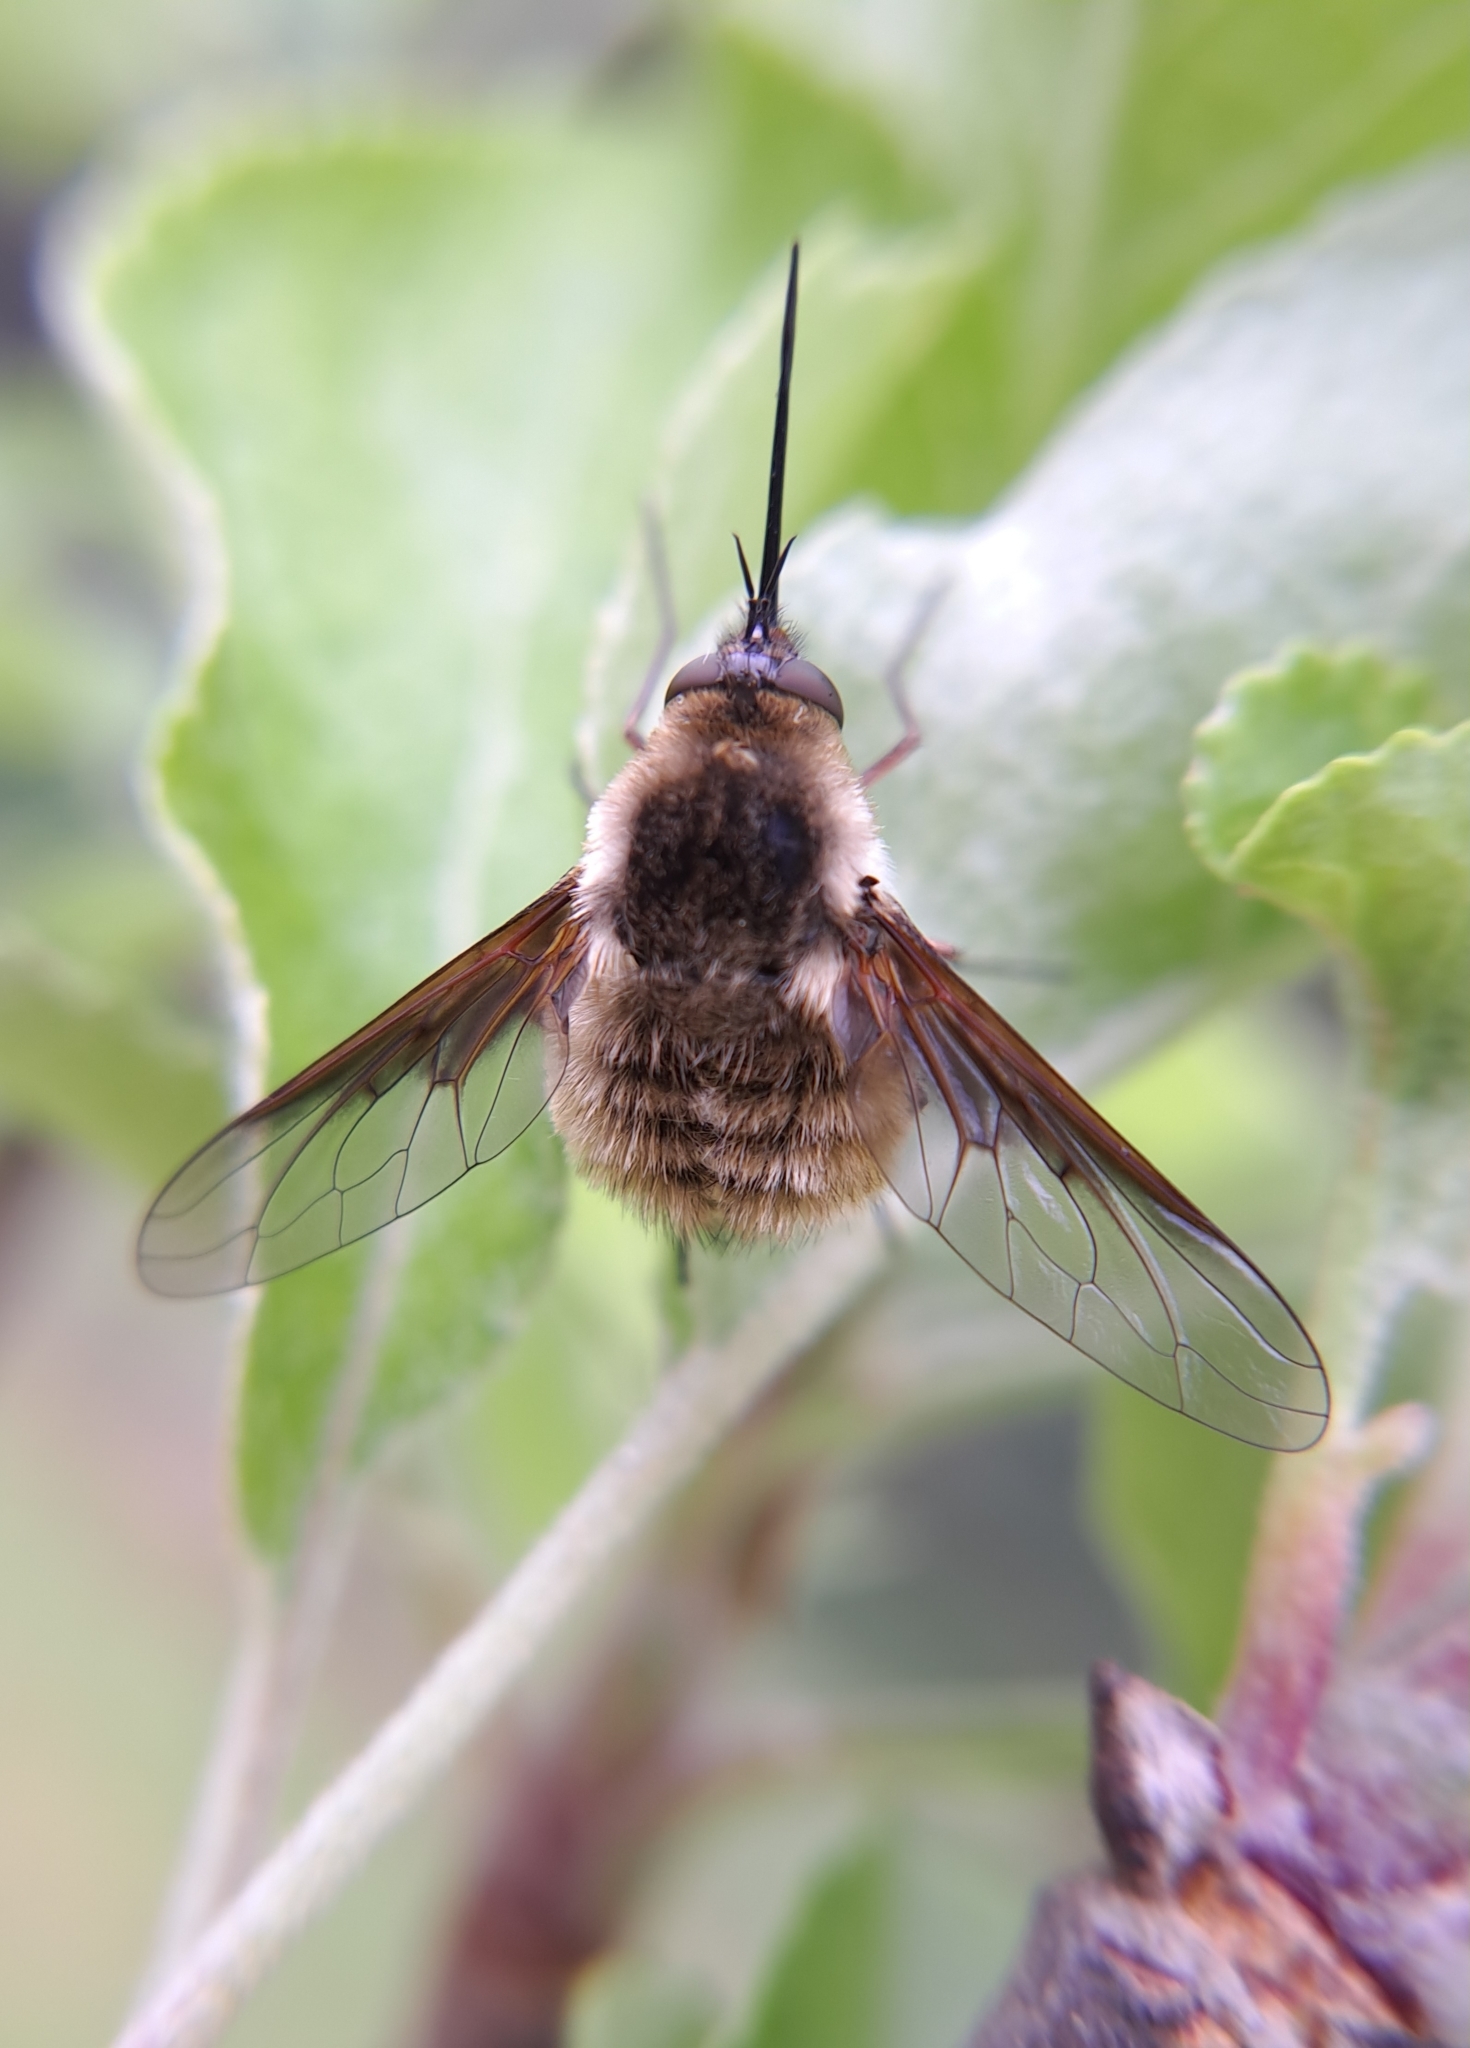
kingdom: Animalia
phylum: Arthropoda
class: Insecta
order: Diptera
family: Bombyliidae
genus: Bombylius
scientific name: Bombylius mexicanus
